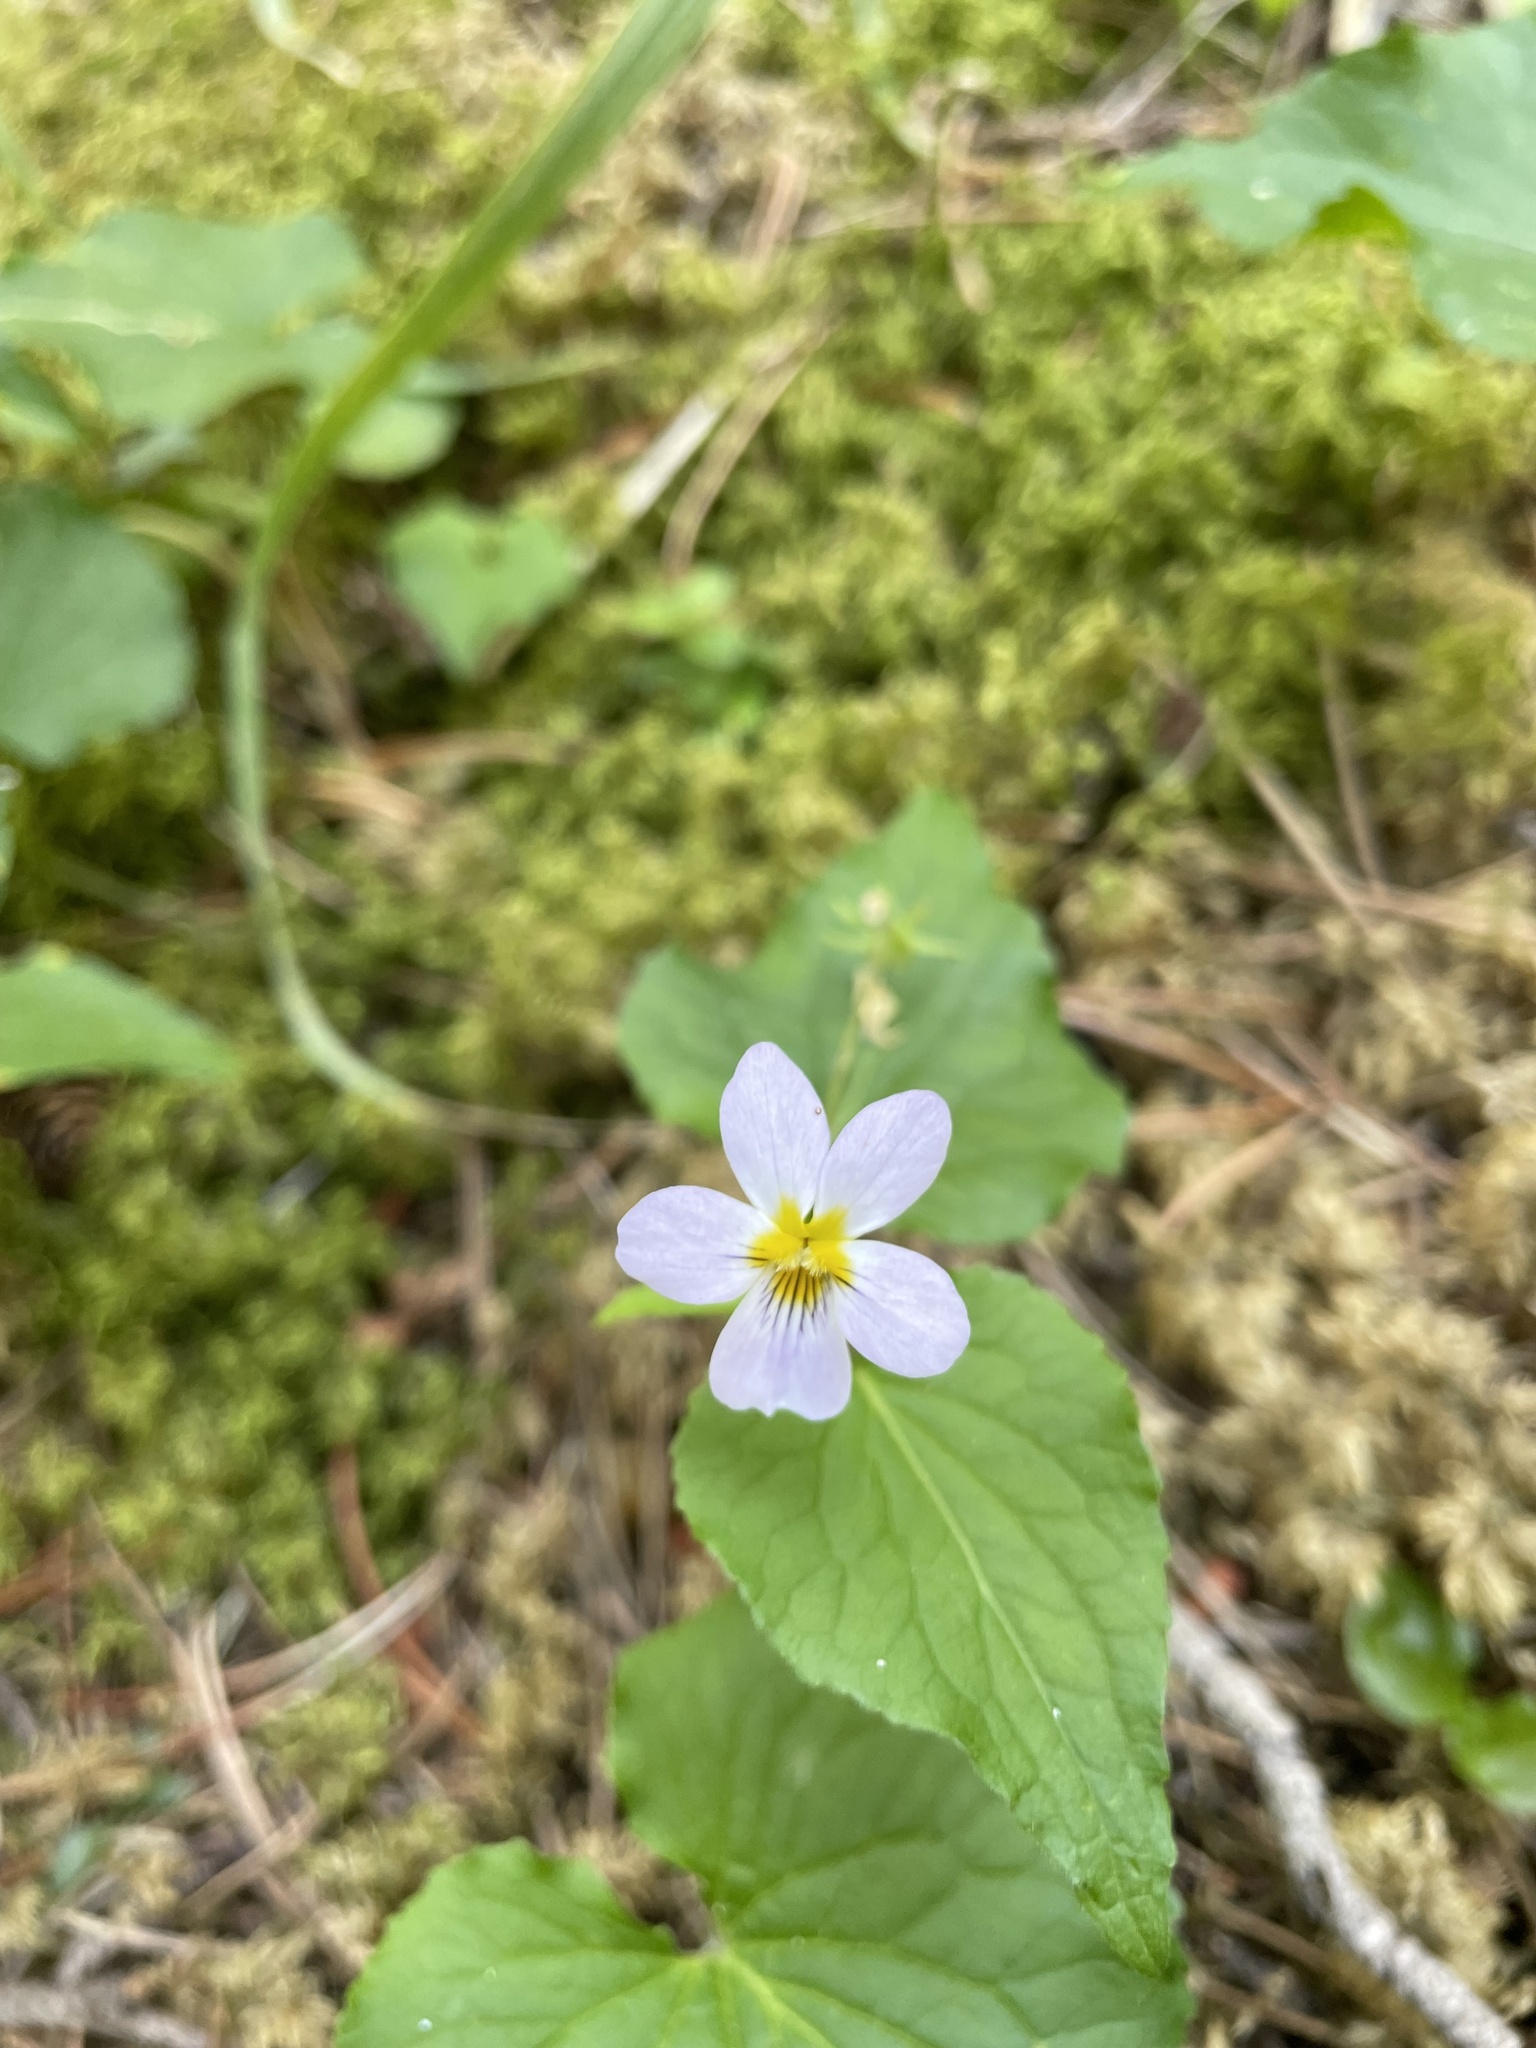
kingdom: Plantae
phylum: Tracheophyta
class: Magnoliopsida
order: Malpighiales
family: Violaceae
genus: Viola
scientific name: Viola canadensis
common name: Canada violet
